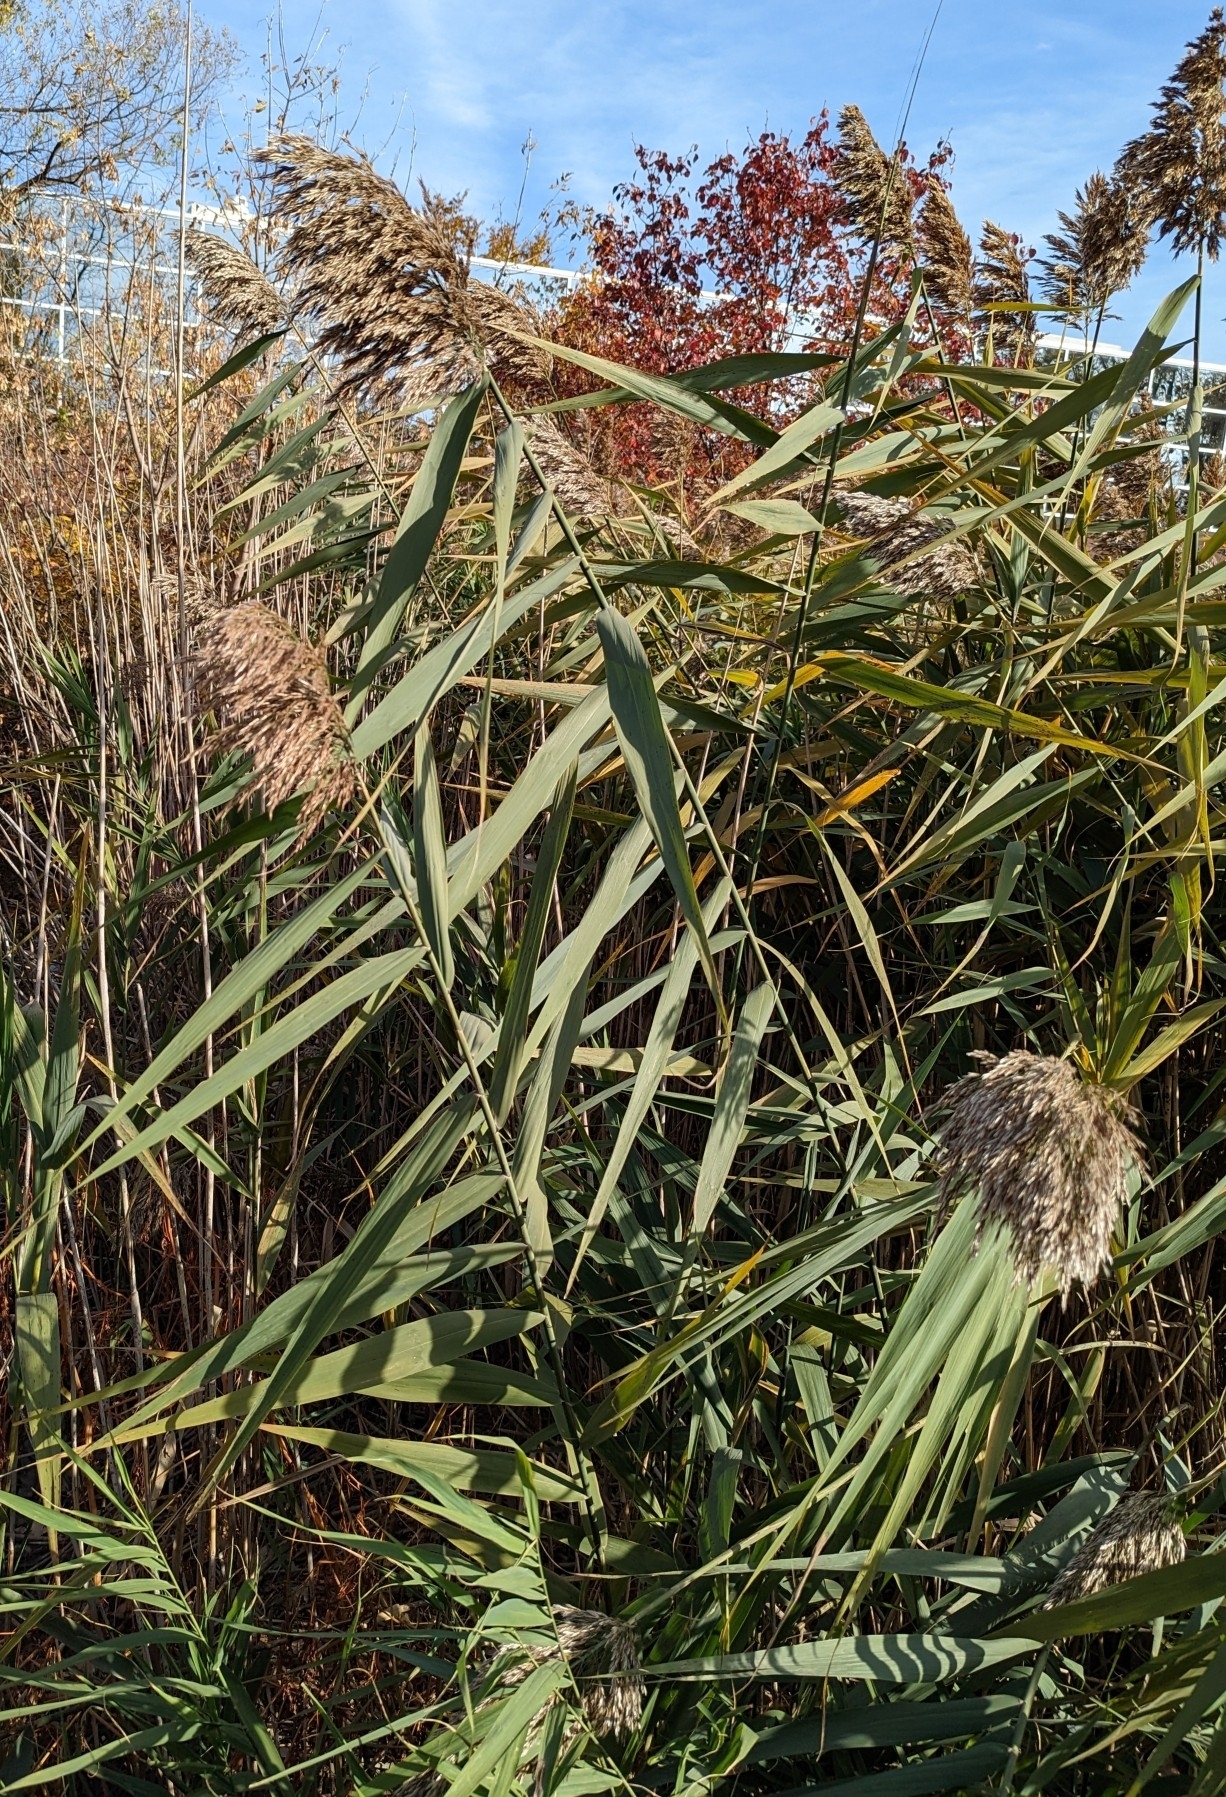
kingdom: Plantae
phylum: Tracheophyta
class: Liliopsida
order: Poales
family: Poaceae
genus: Phragmites
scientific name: Phragmites australis
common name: Common reed
